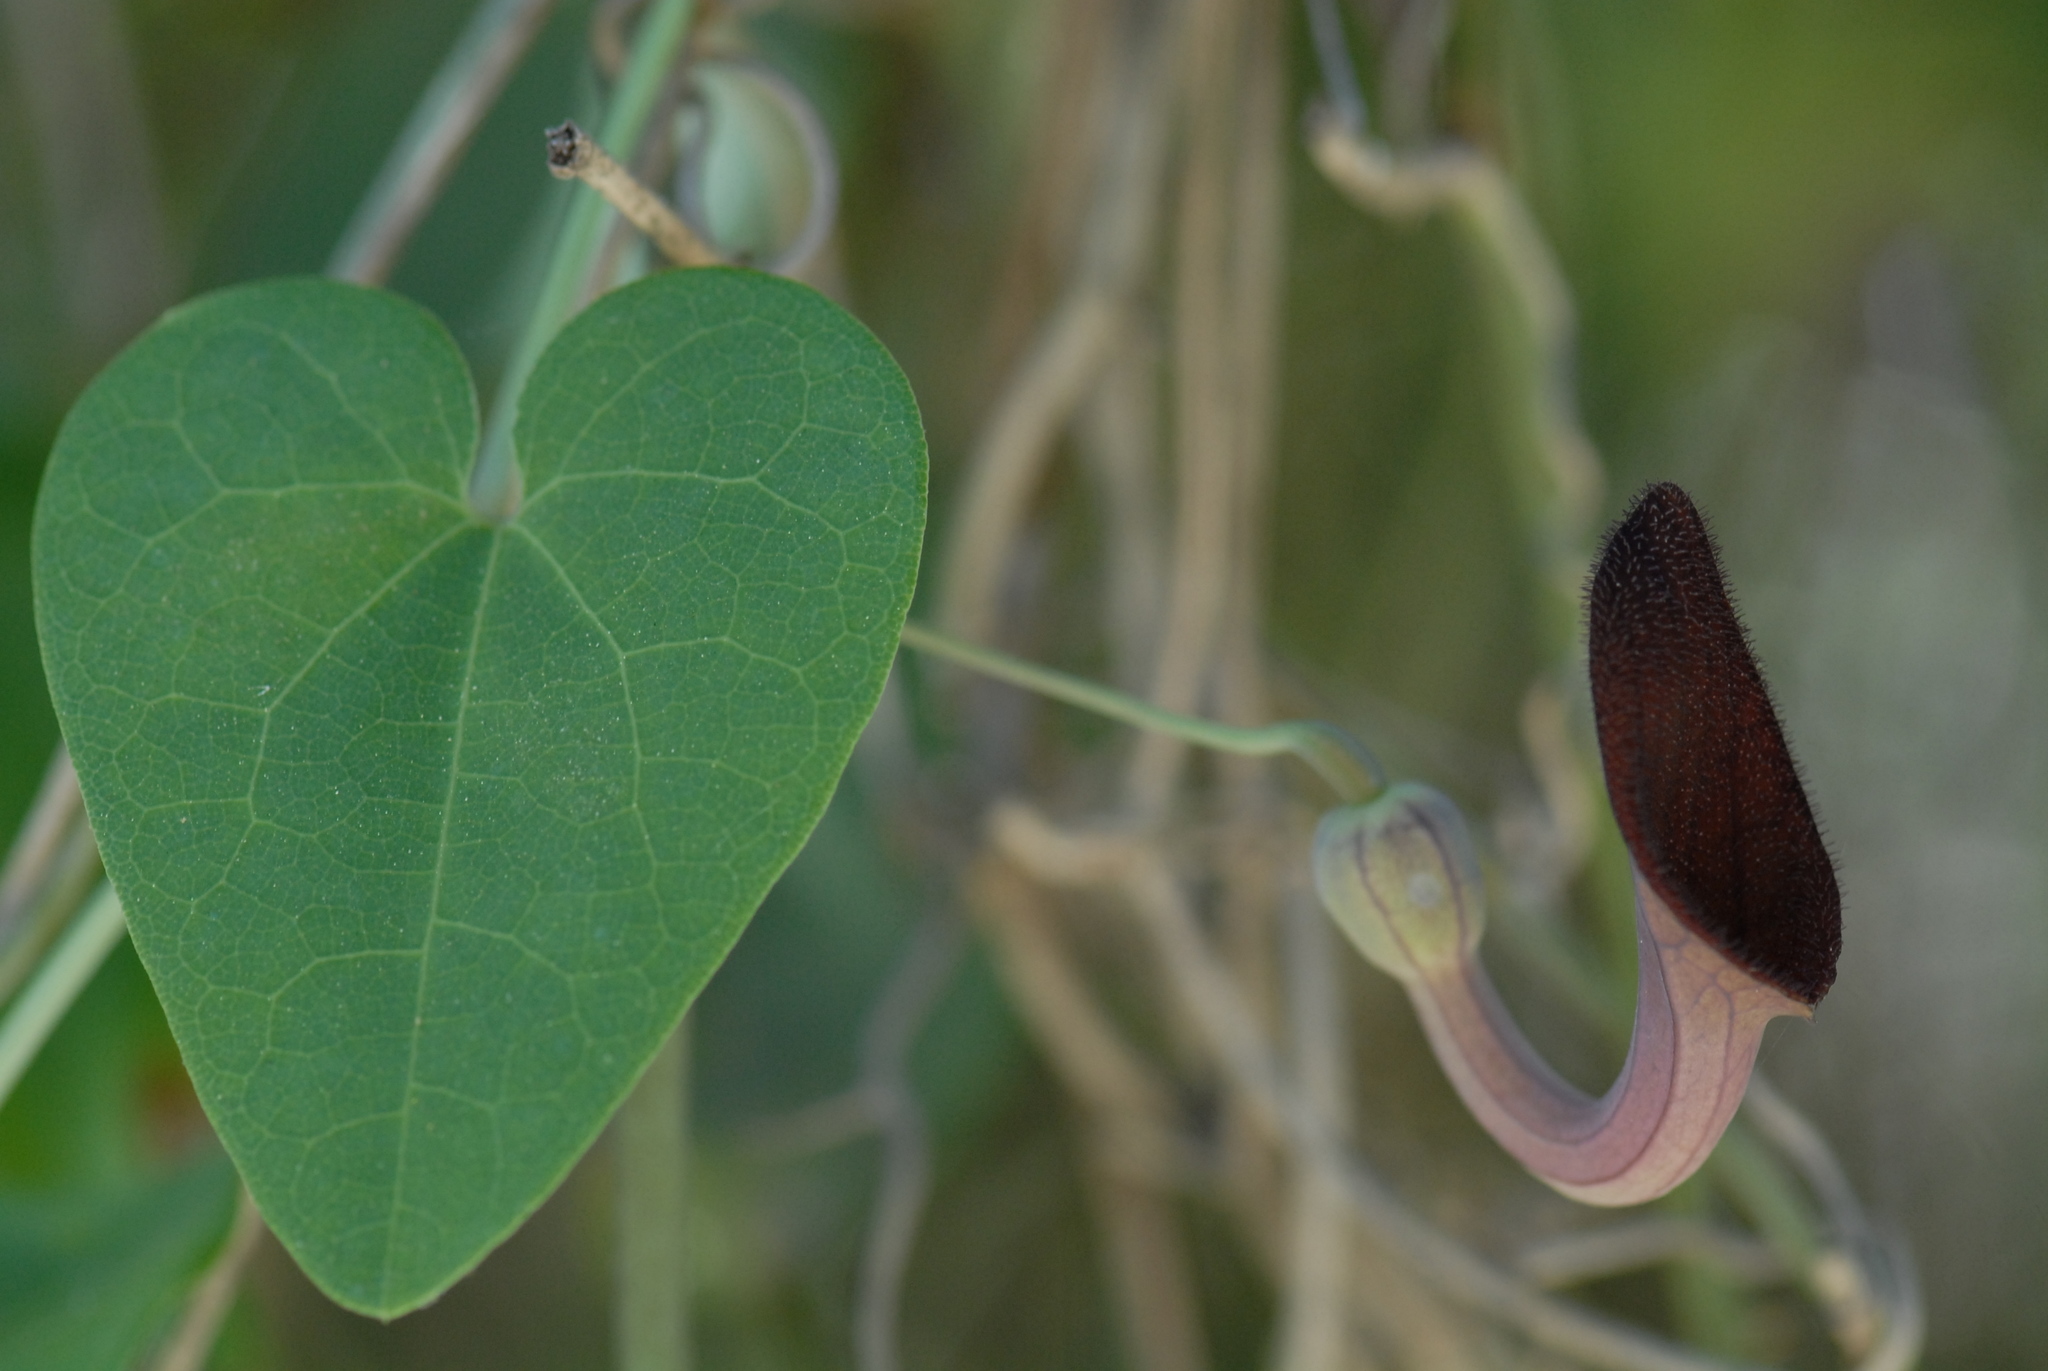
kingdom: Plantae
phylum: Tracheophyta
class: Magnoliopsida
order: Piperales
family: Aristolochiaceae
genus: Aristolochia
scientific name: Aristolochia baetica
